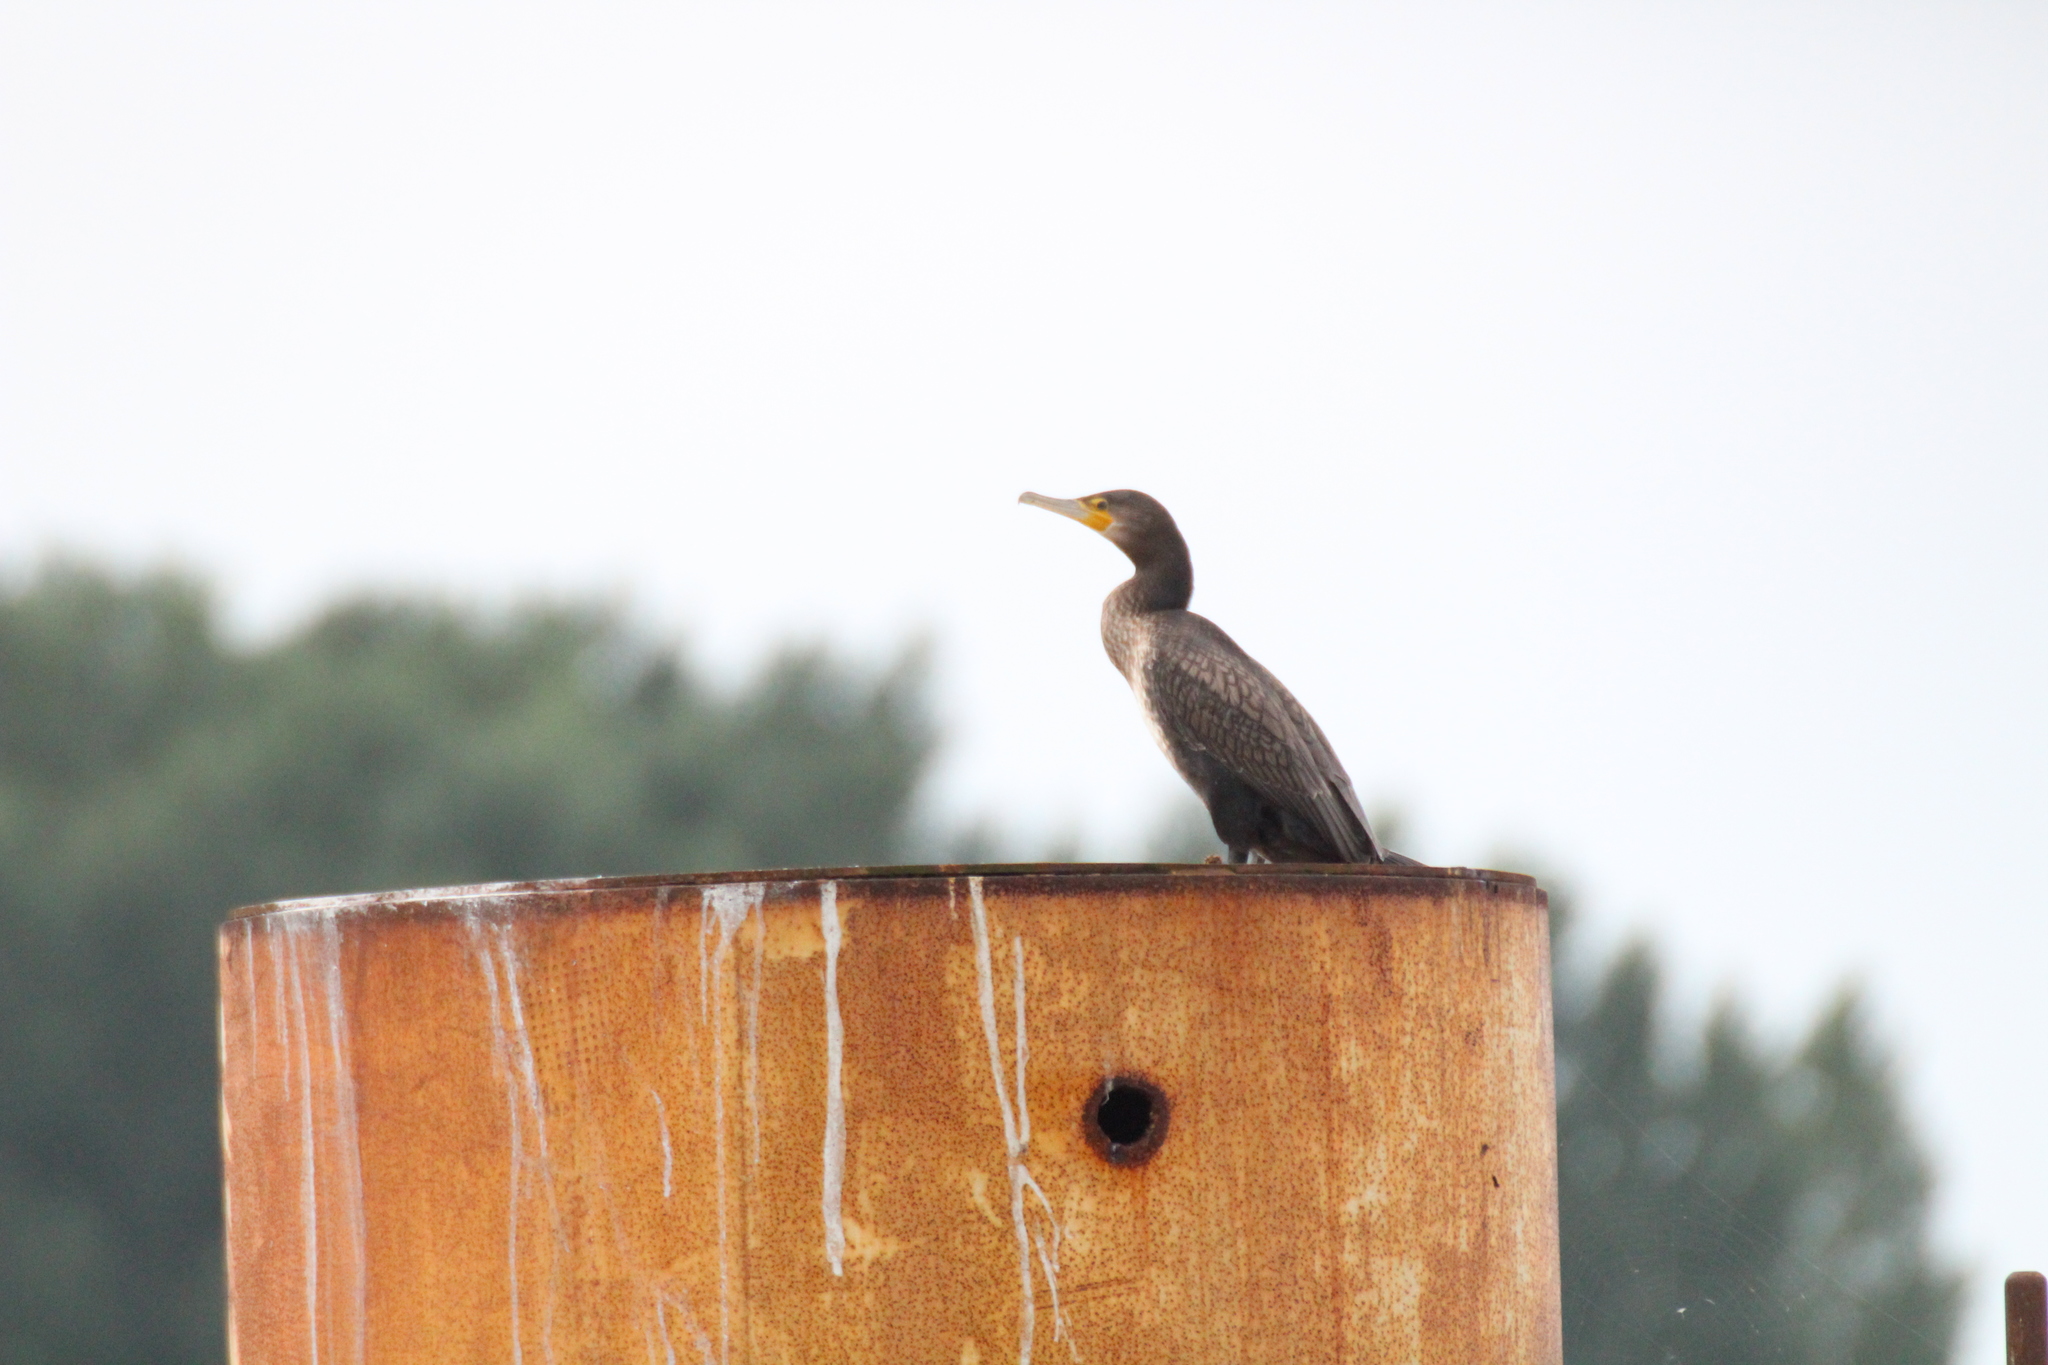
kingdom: Animalia
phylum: Chordata
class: Aves
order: Suliformes
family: Phalacrocoracidae
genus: Phalacrocorax
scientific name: Phalacrocorax carbo
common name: Great cormorant
